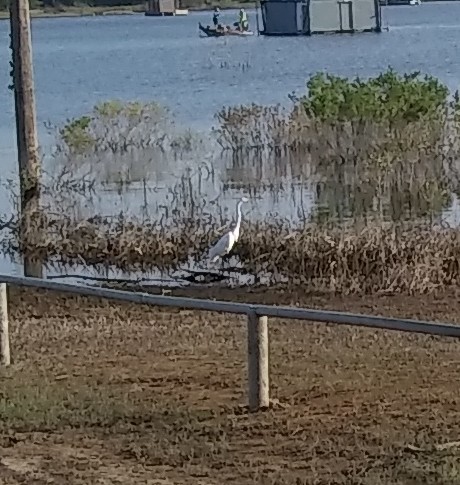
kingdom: Animalia
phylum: Chordata
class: Aves
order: Pelecaniformes
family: Ardeidae
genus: Ardea
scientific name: Ardea alba
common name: Great egret
